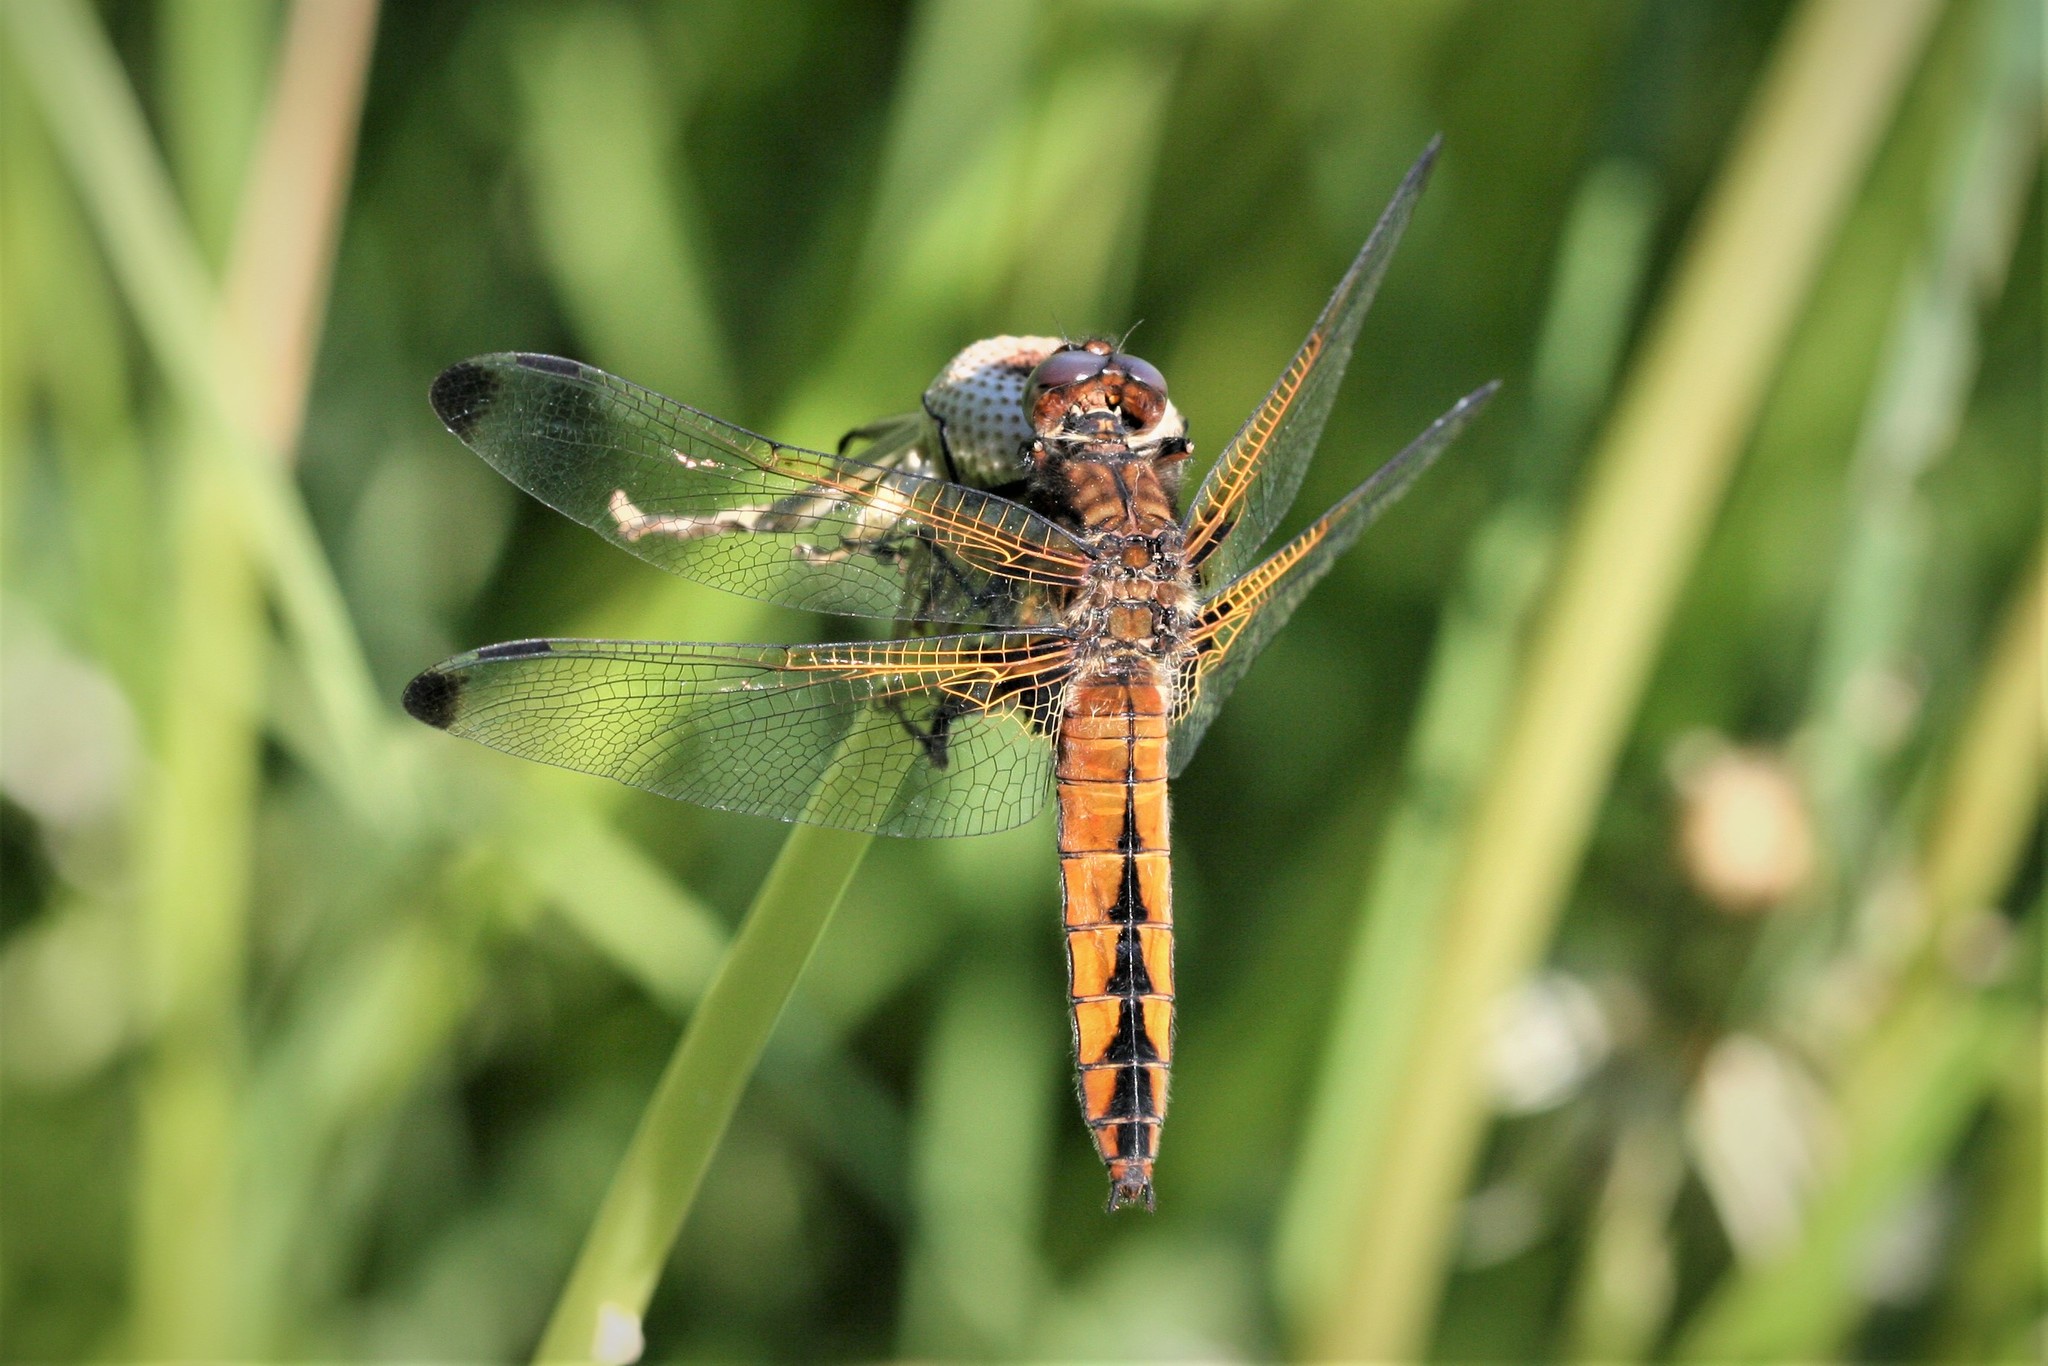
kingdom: Animalia
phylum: Arthropoda
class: Insecta
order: Odonata
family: Libellulidae
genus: Libellula
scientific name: Libellula fulva
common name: Blue chaser
